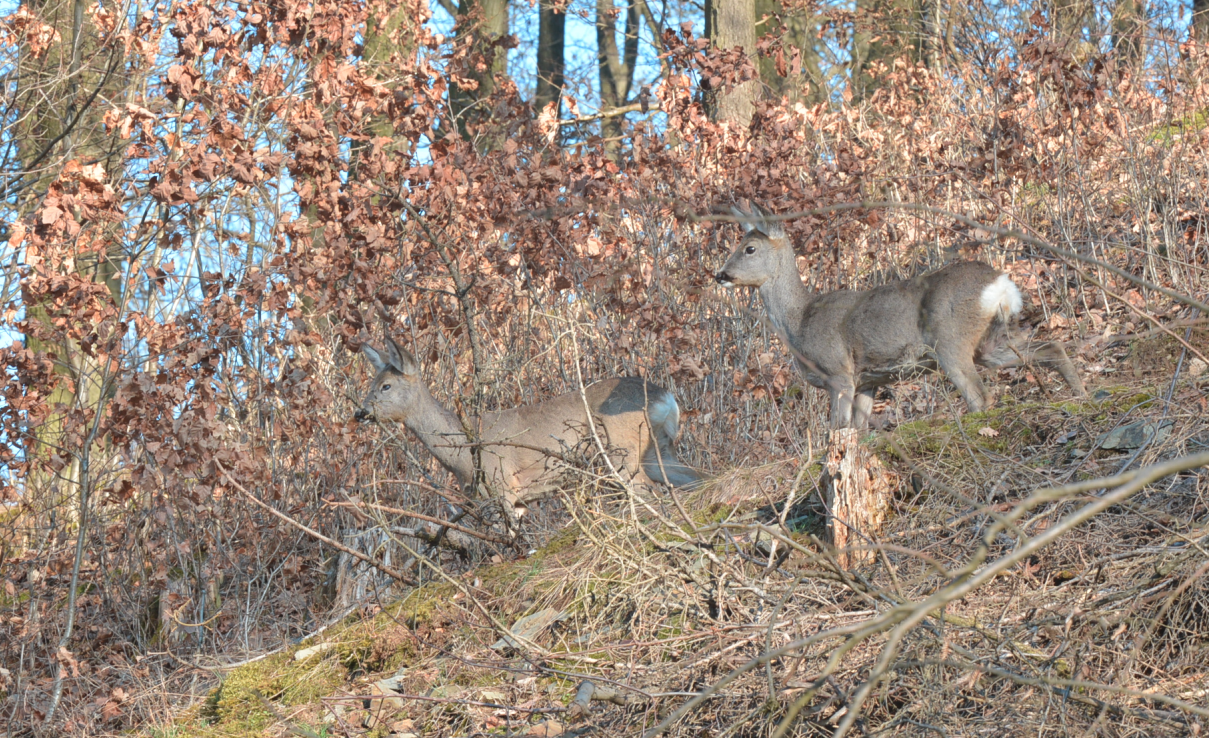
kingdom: Animalia
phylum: Chordata
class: Mammalia
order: Artiodactyla
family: Cervidae
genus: Capreolus
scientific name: Capreolus capreolus
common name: Western roe deer
